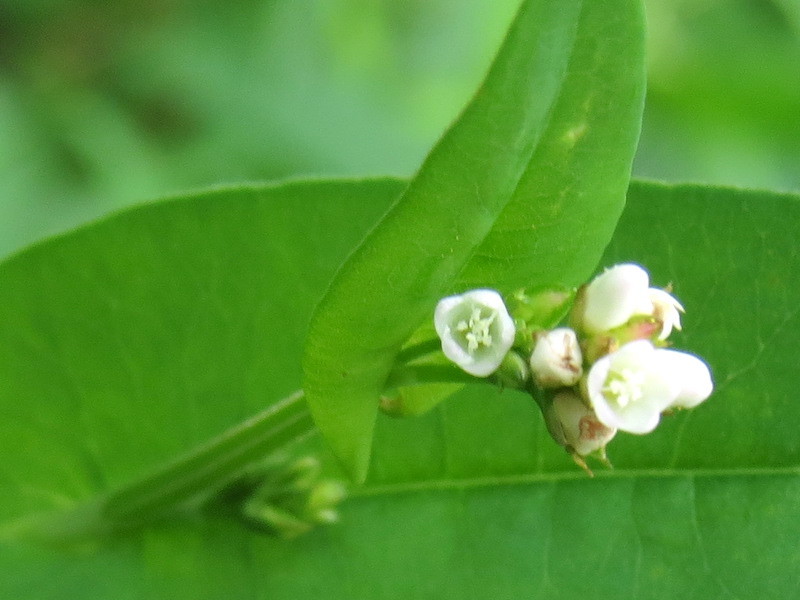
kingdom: Plantae
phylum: Tracheophyta
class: Magnoliopsida
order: Caryophyllales
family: Polygonaceae
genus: Persicaria
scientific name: Persicaria sagittata
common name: American tearthumb
